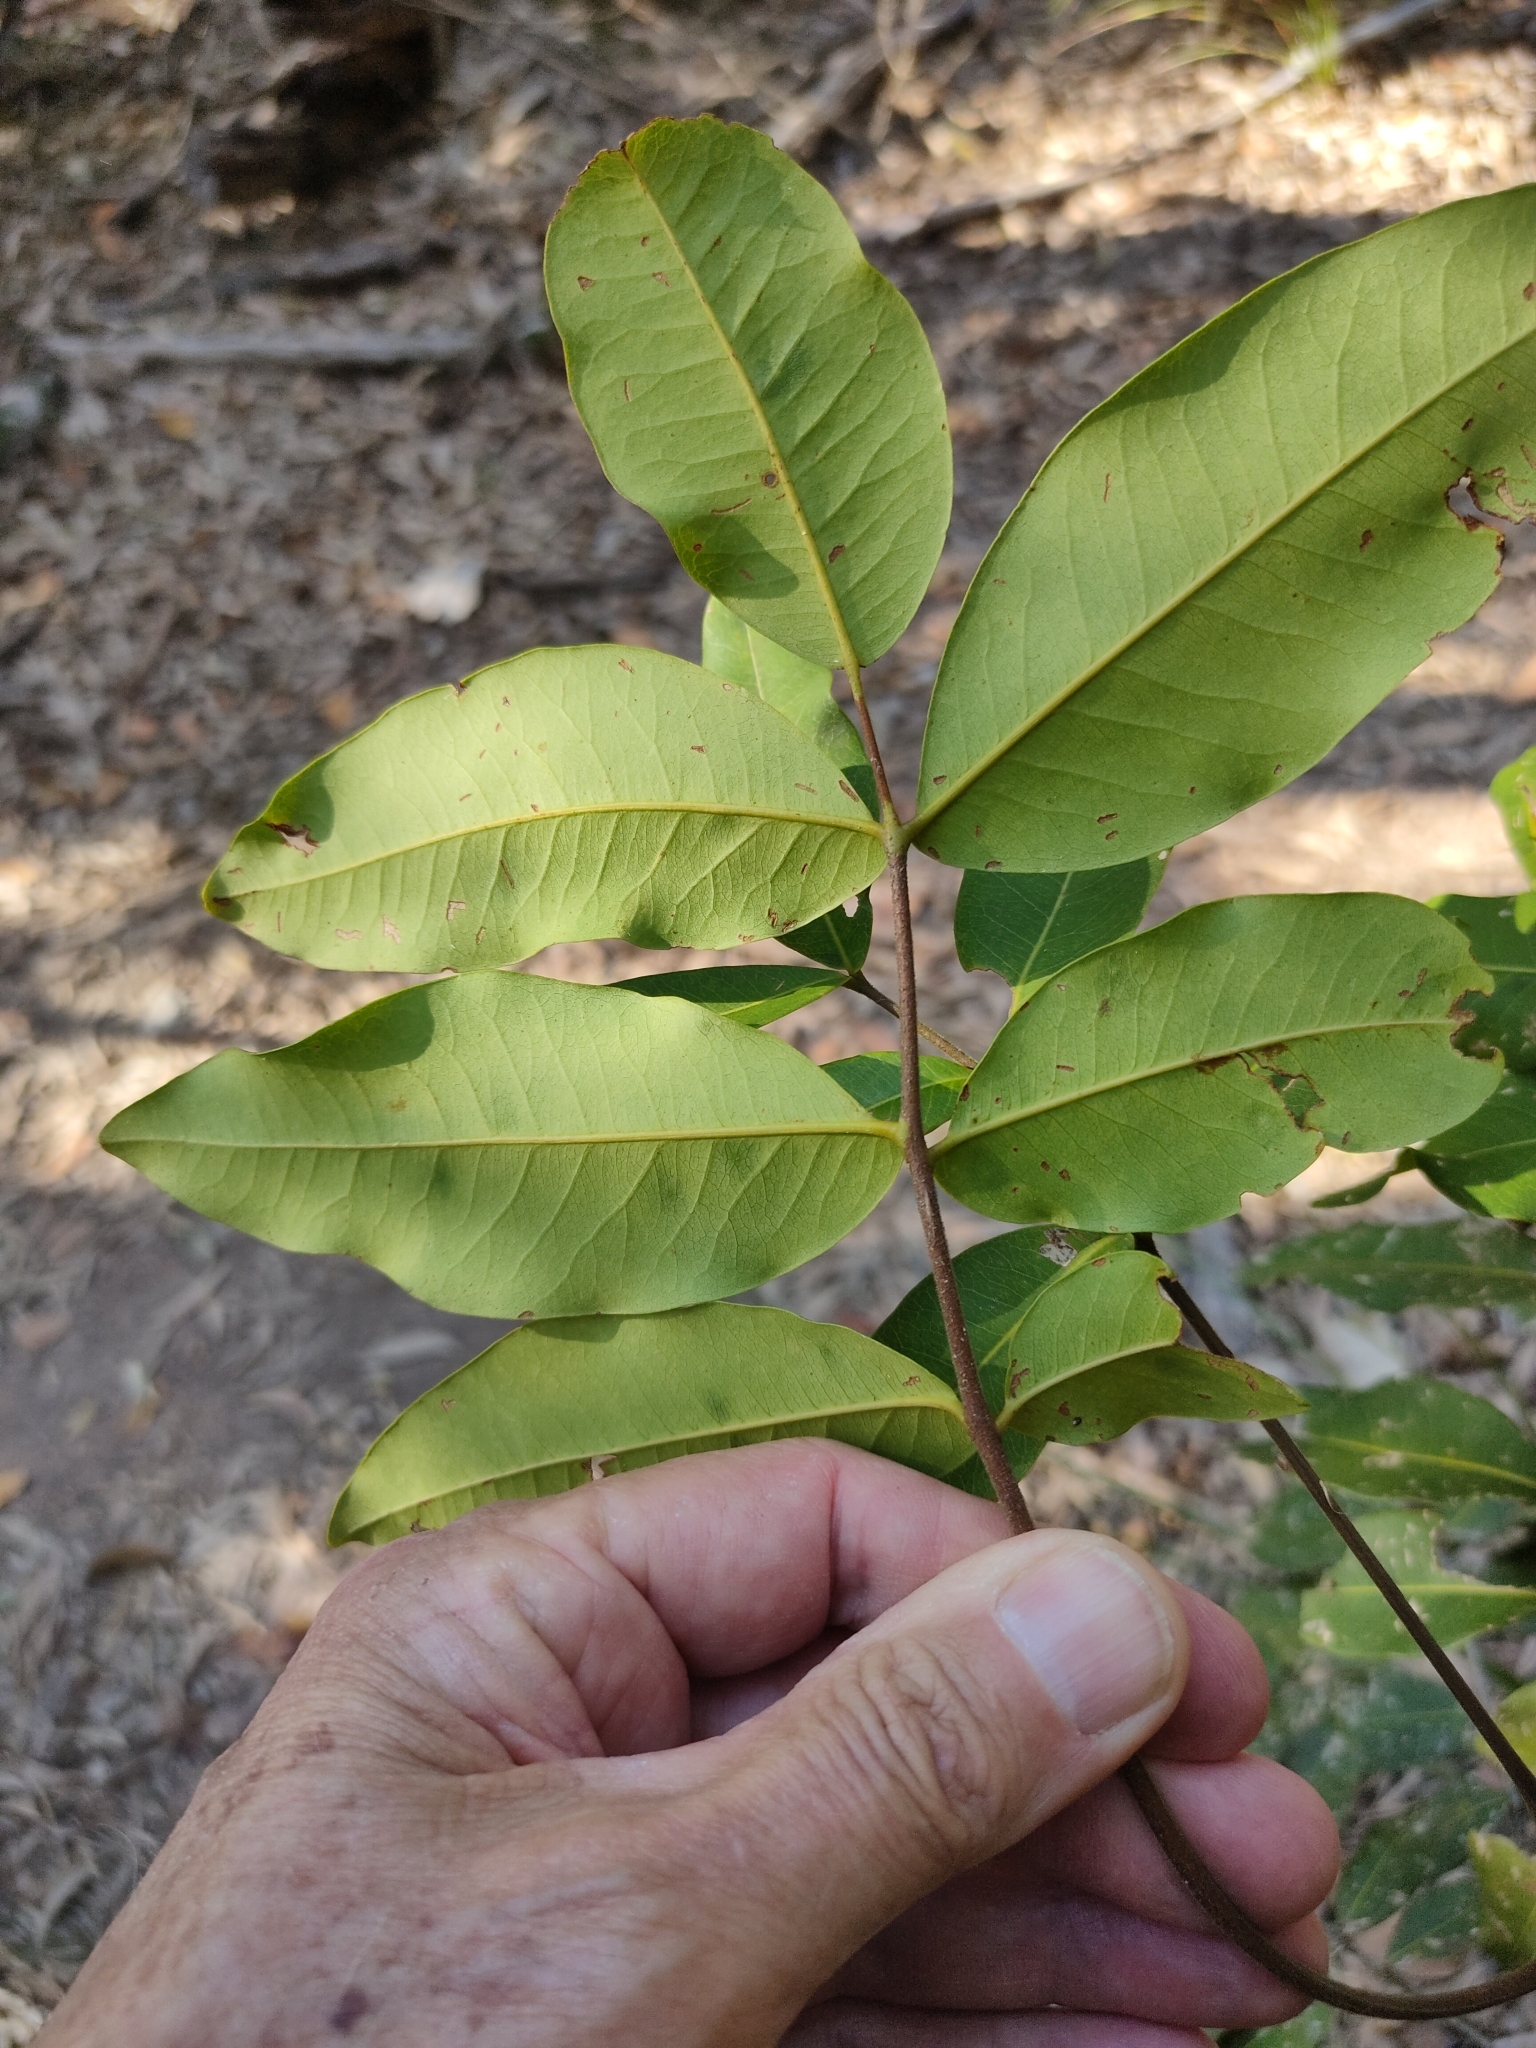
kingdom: Plantae
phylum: Tracheophyta
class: Magnoliopsida
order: Sapindales
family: Rutaceae
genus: Flindersia
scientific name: Flindersia bennettii
